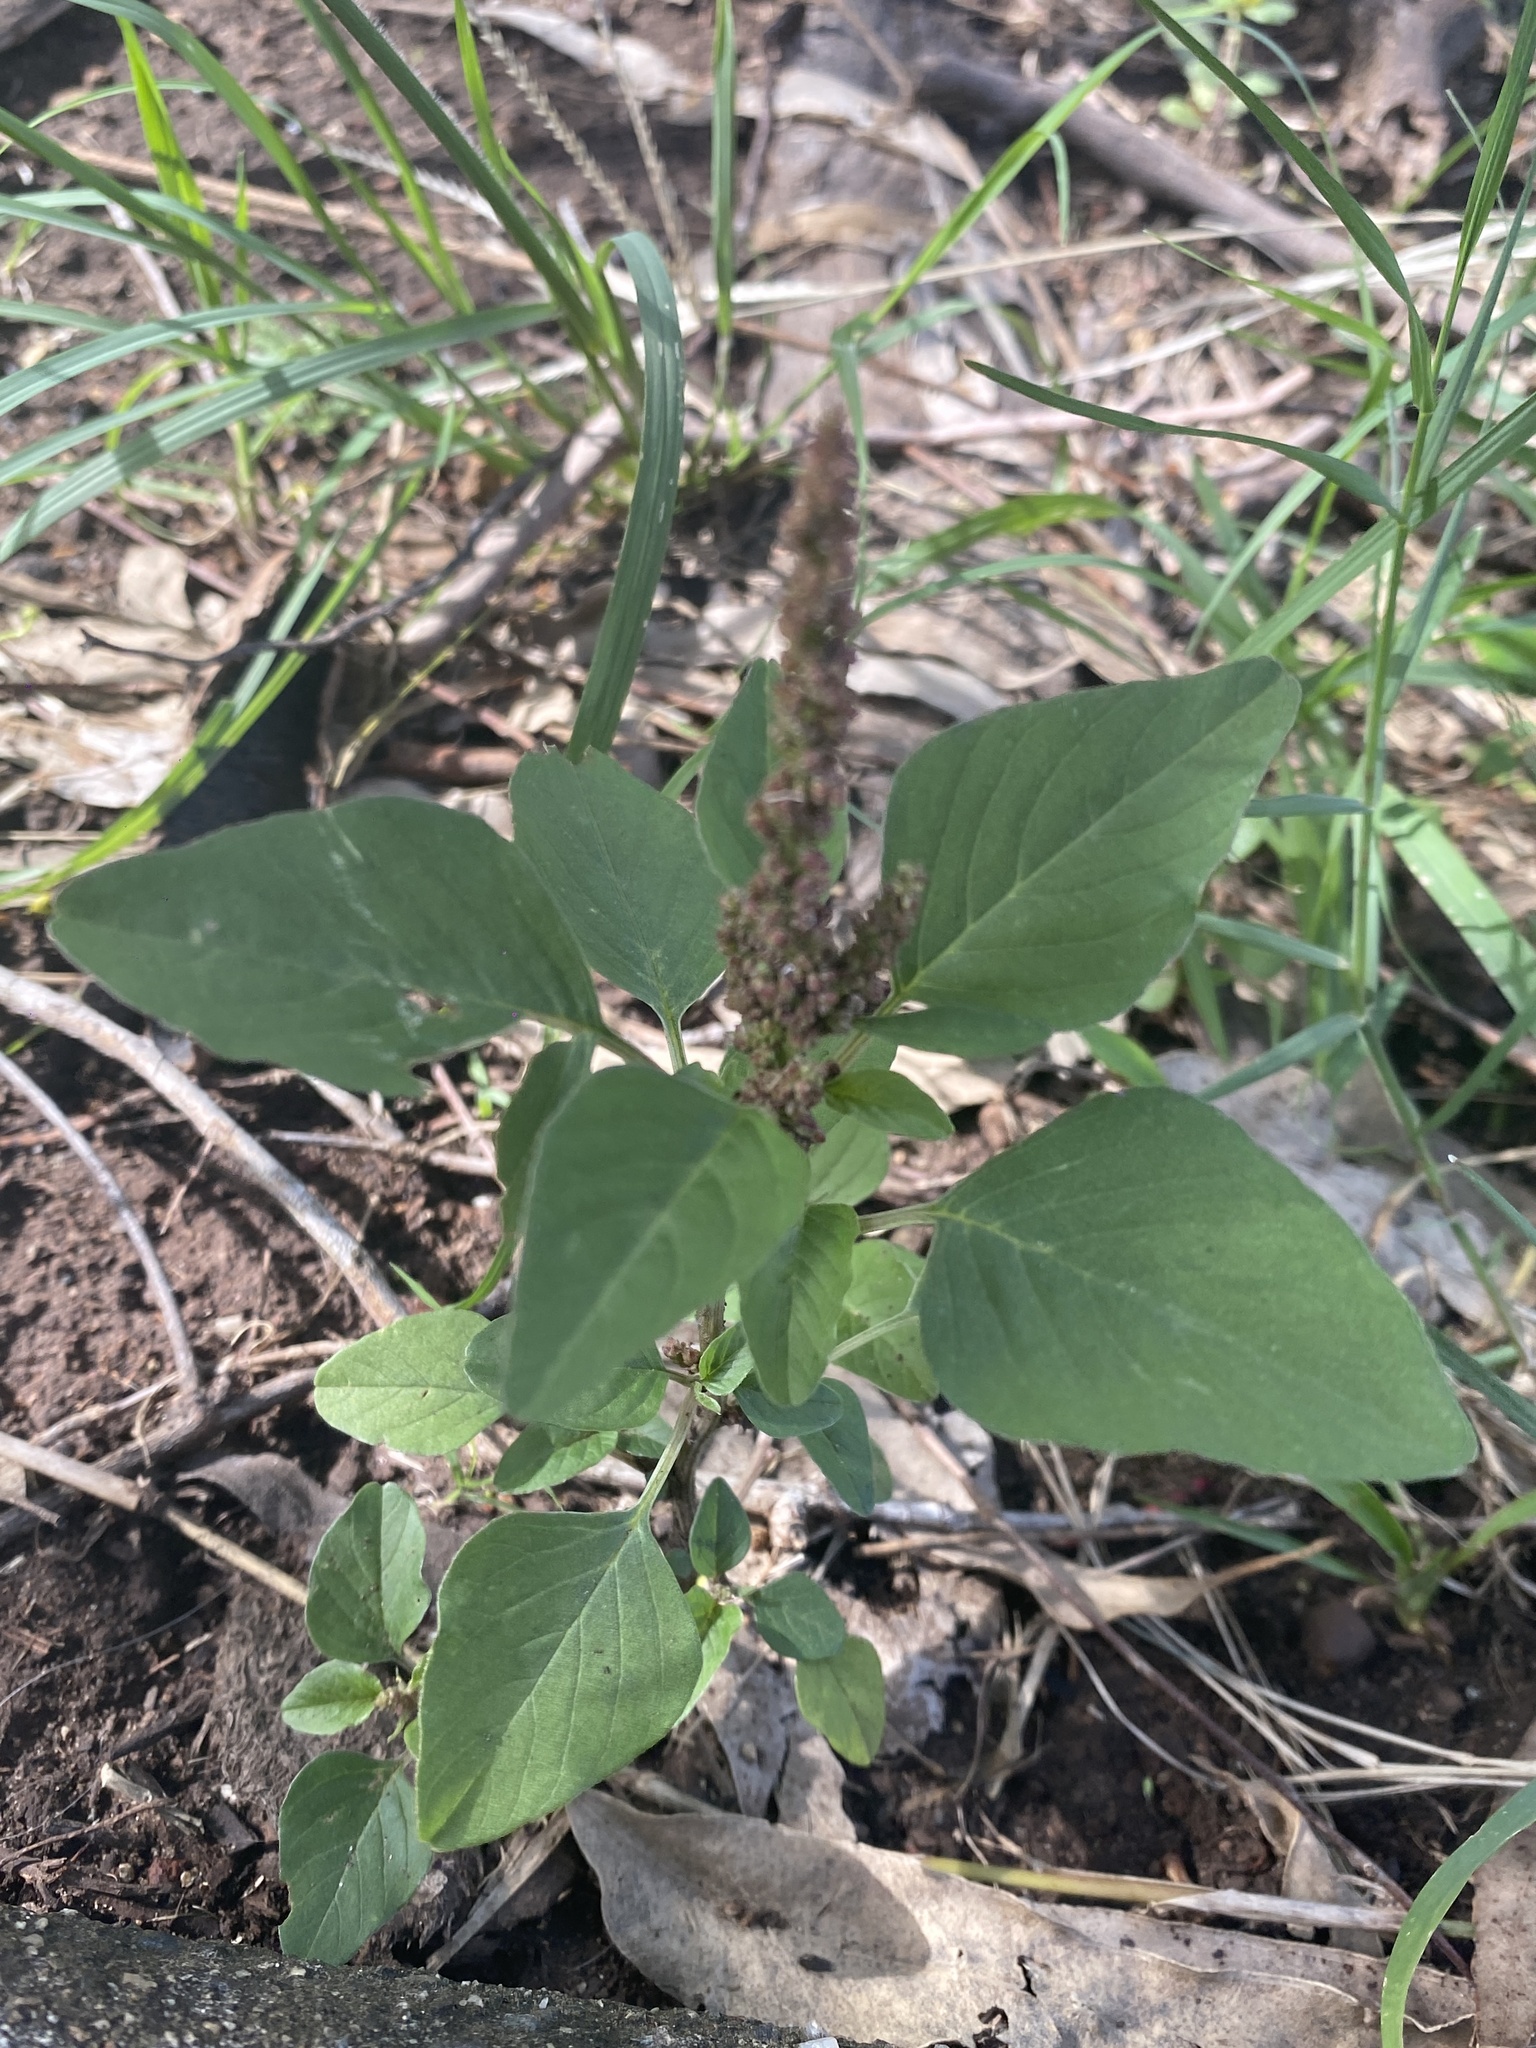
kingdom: Plantae
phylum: Tracheophyta
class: Magnoliopsida
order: Caryophyllales
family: Amaranthaceae
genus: Amaranthus
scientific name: Amaranthus viridis
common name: Slender amaranth
